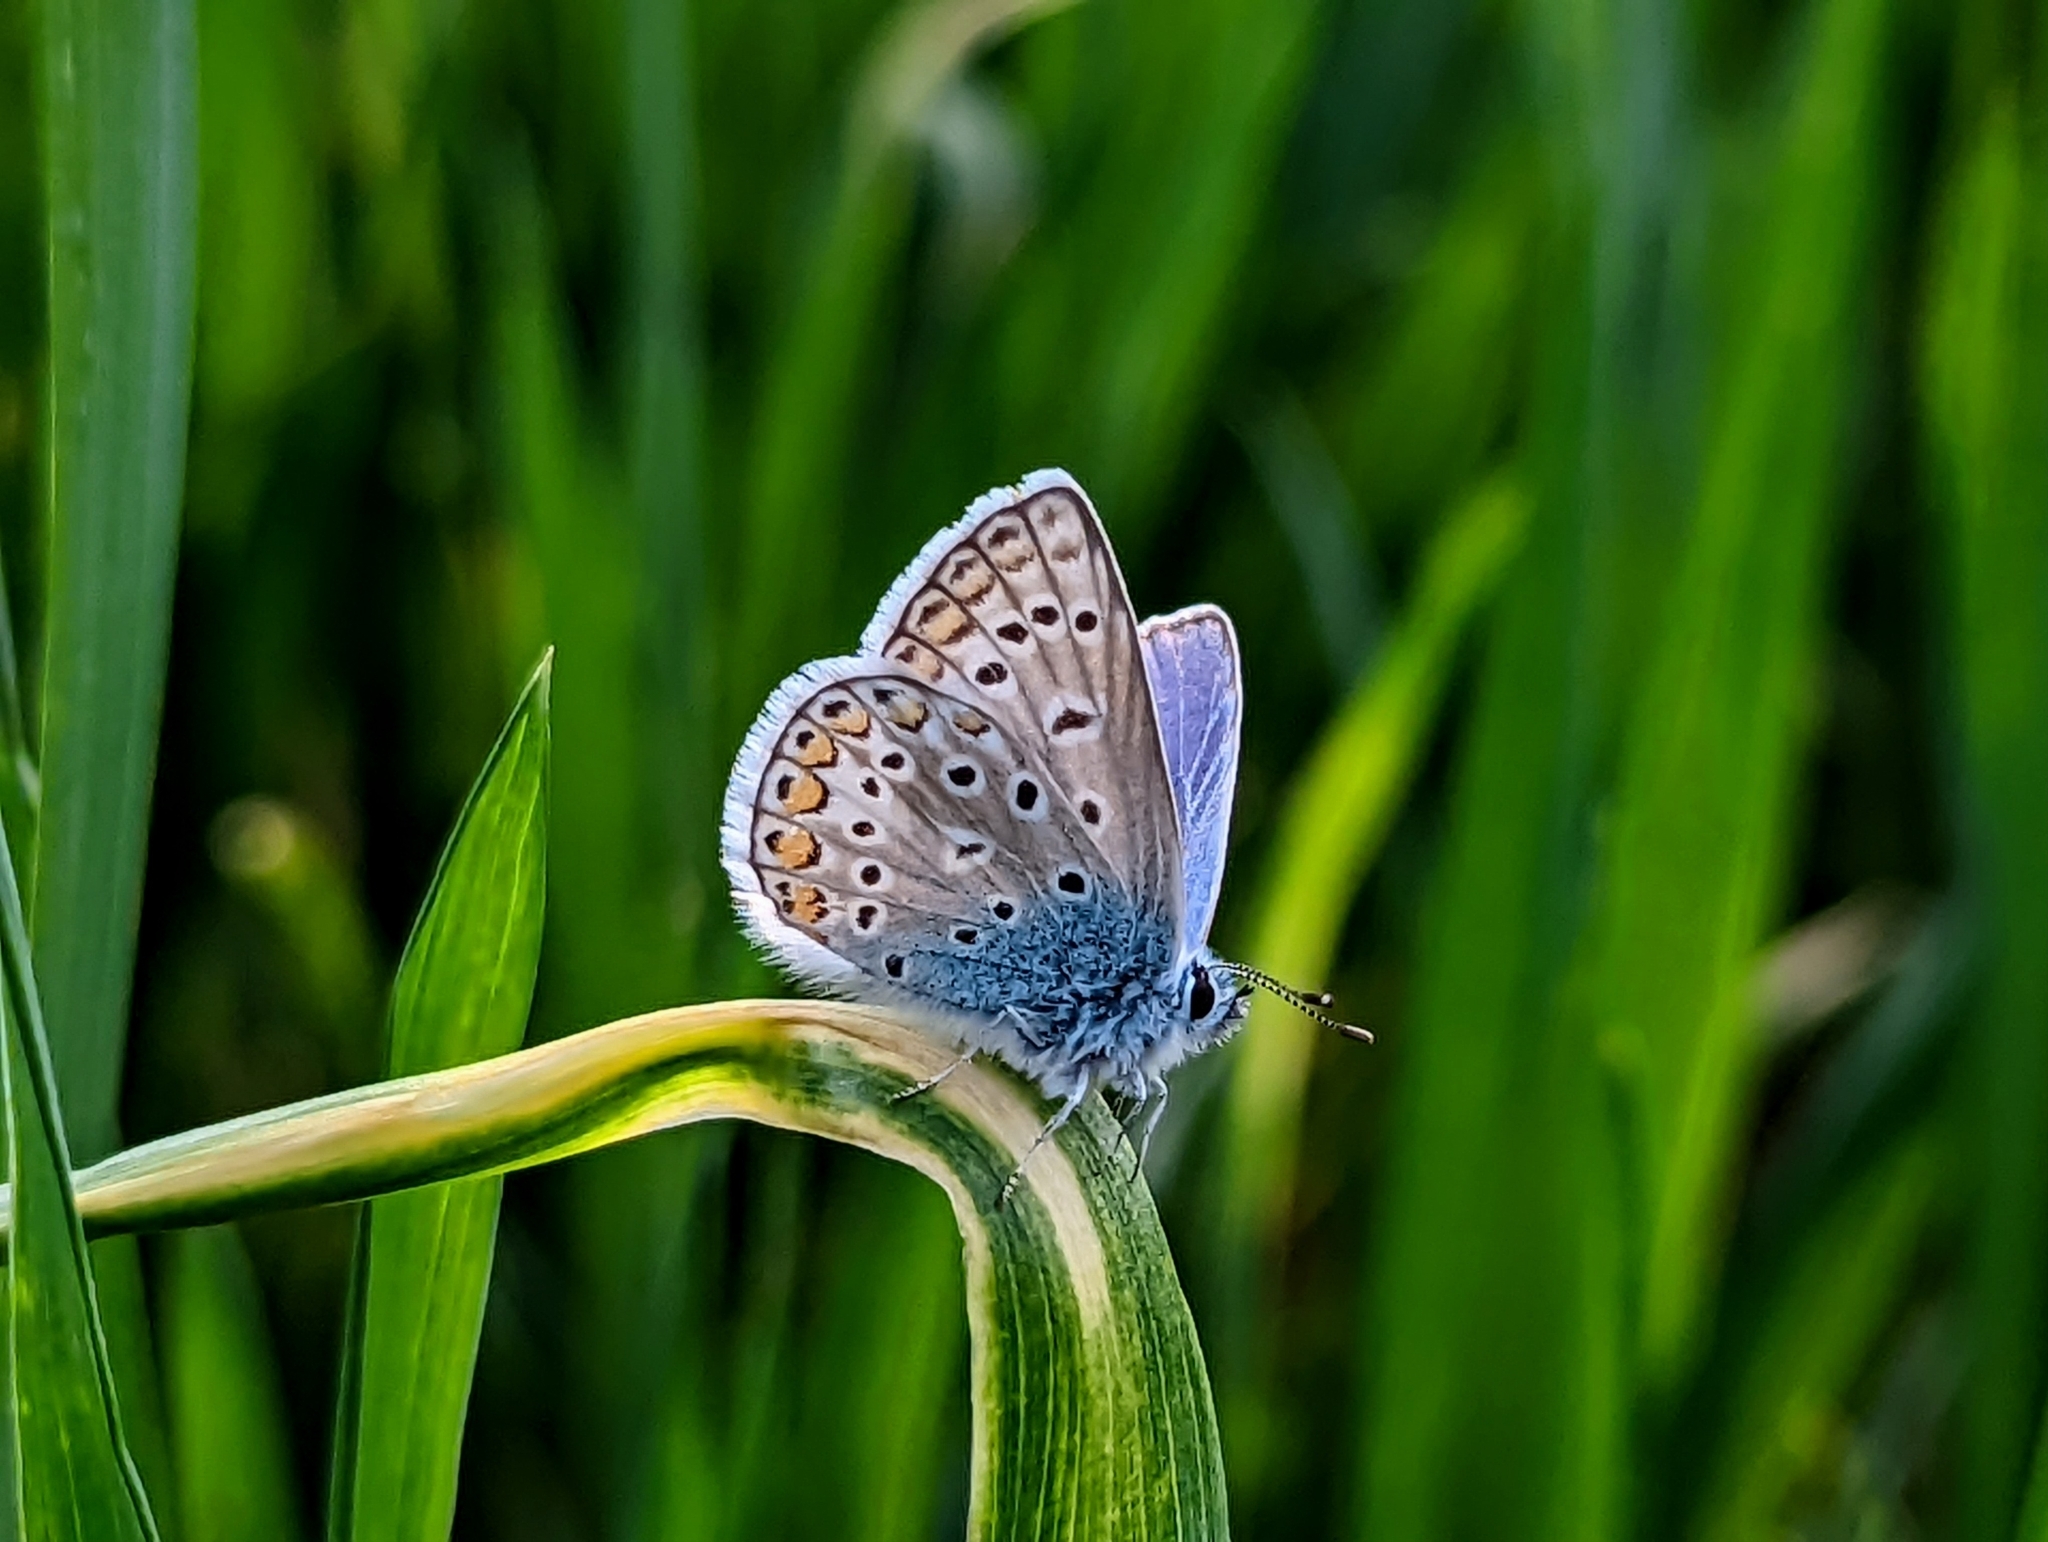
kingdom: Animalia
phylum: Arthropoda
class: Insecta
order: Lepidoptera
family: Lycaenidae
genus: Polyommatus
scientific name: Polyommatus icarus
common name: Common blue
